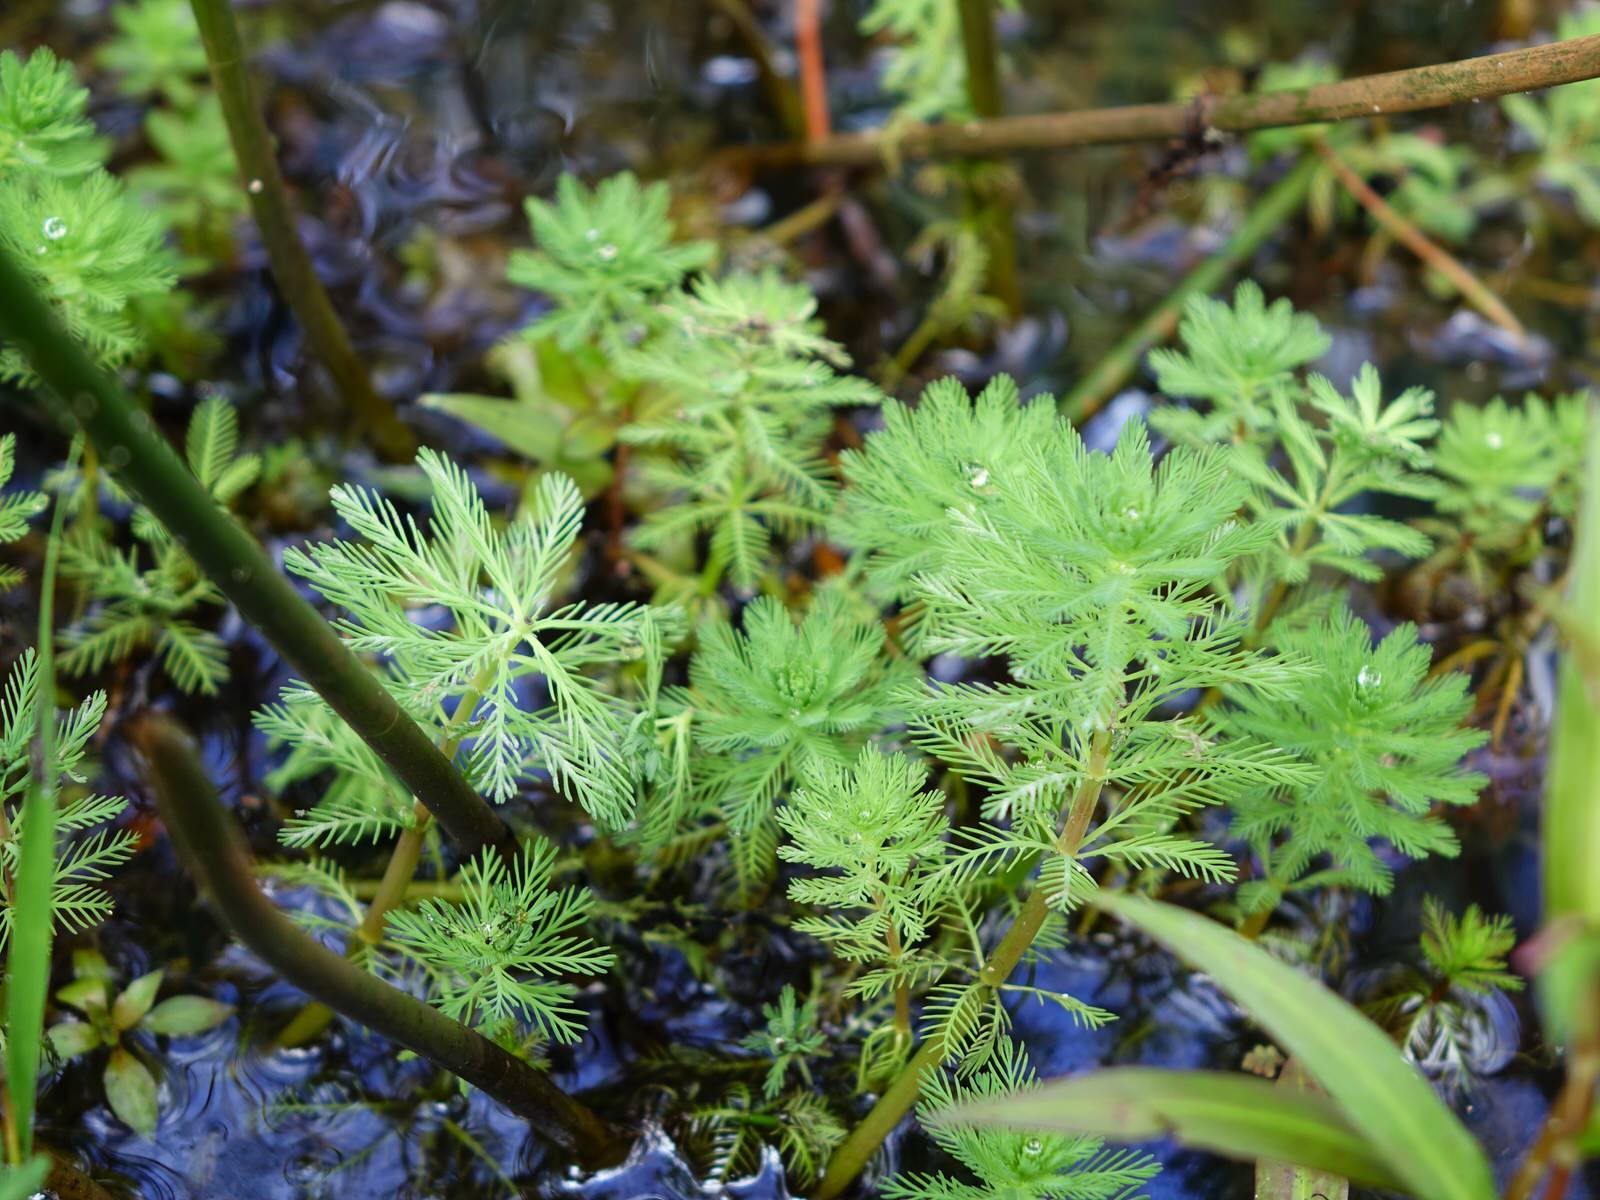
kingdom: Plantae
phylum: Tracheophyta
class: Magnoliopsida
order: Saxifragales
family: Haloragaceae
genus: Myriophyllum
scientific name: Myriophyllum aquaticum
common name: Parrot's feather
